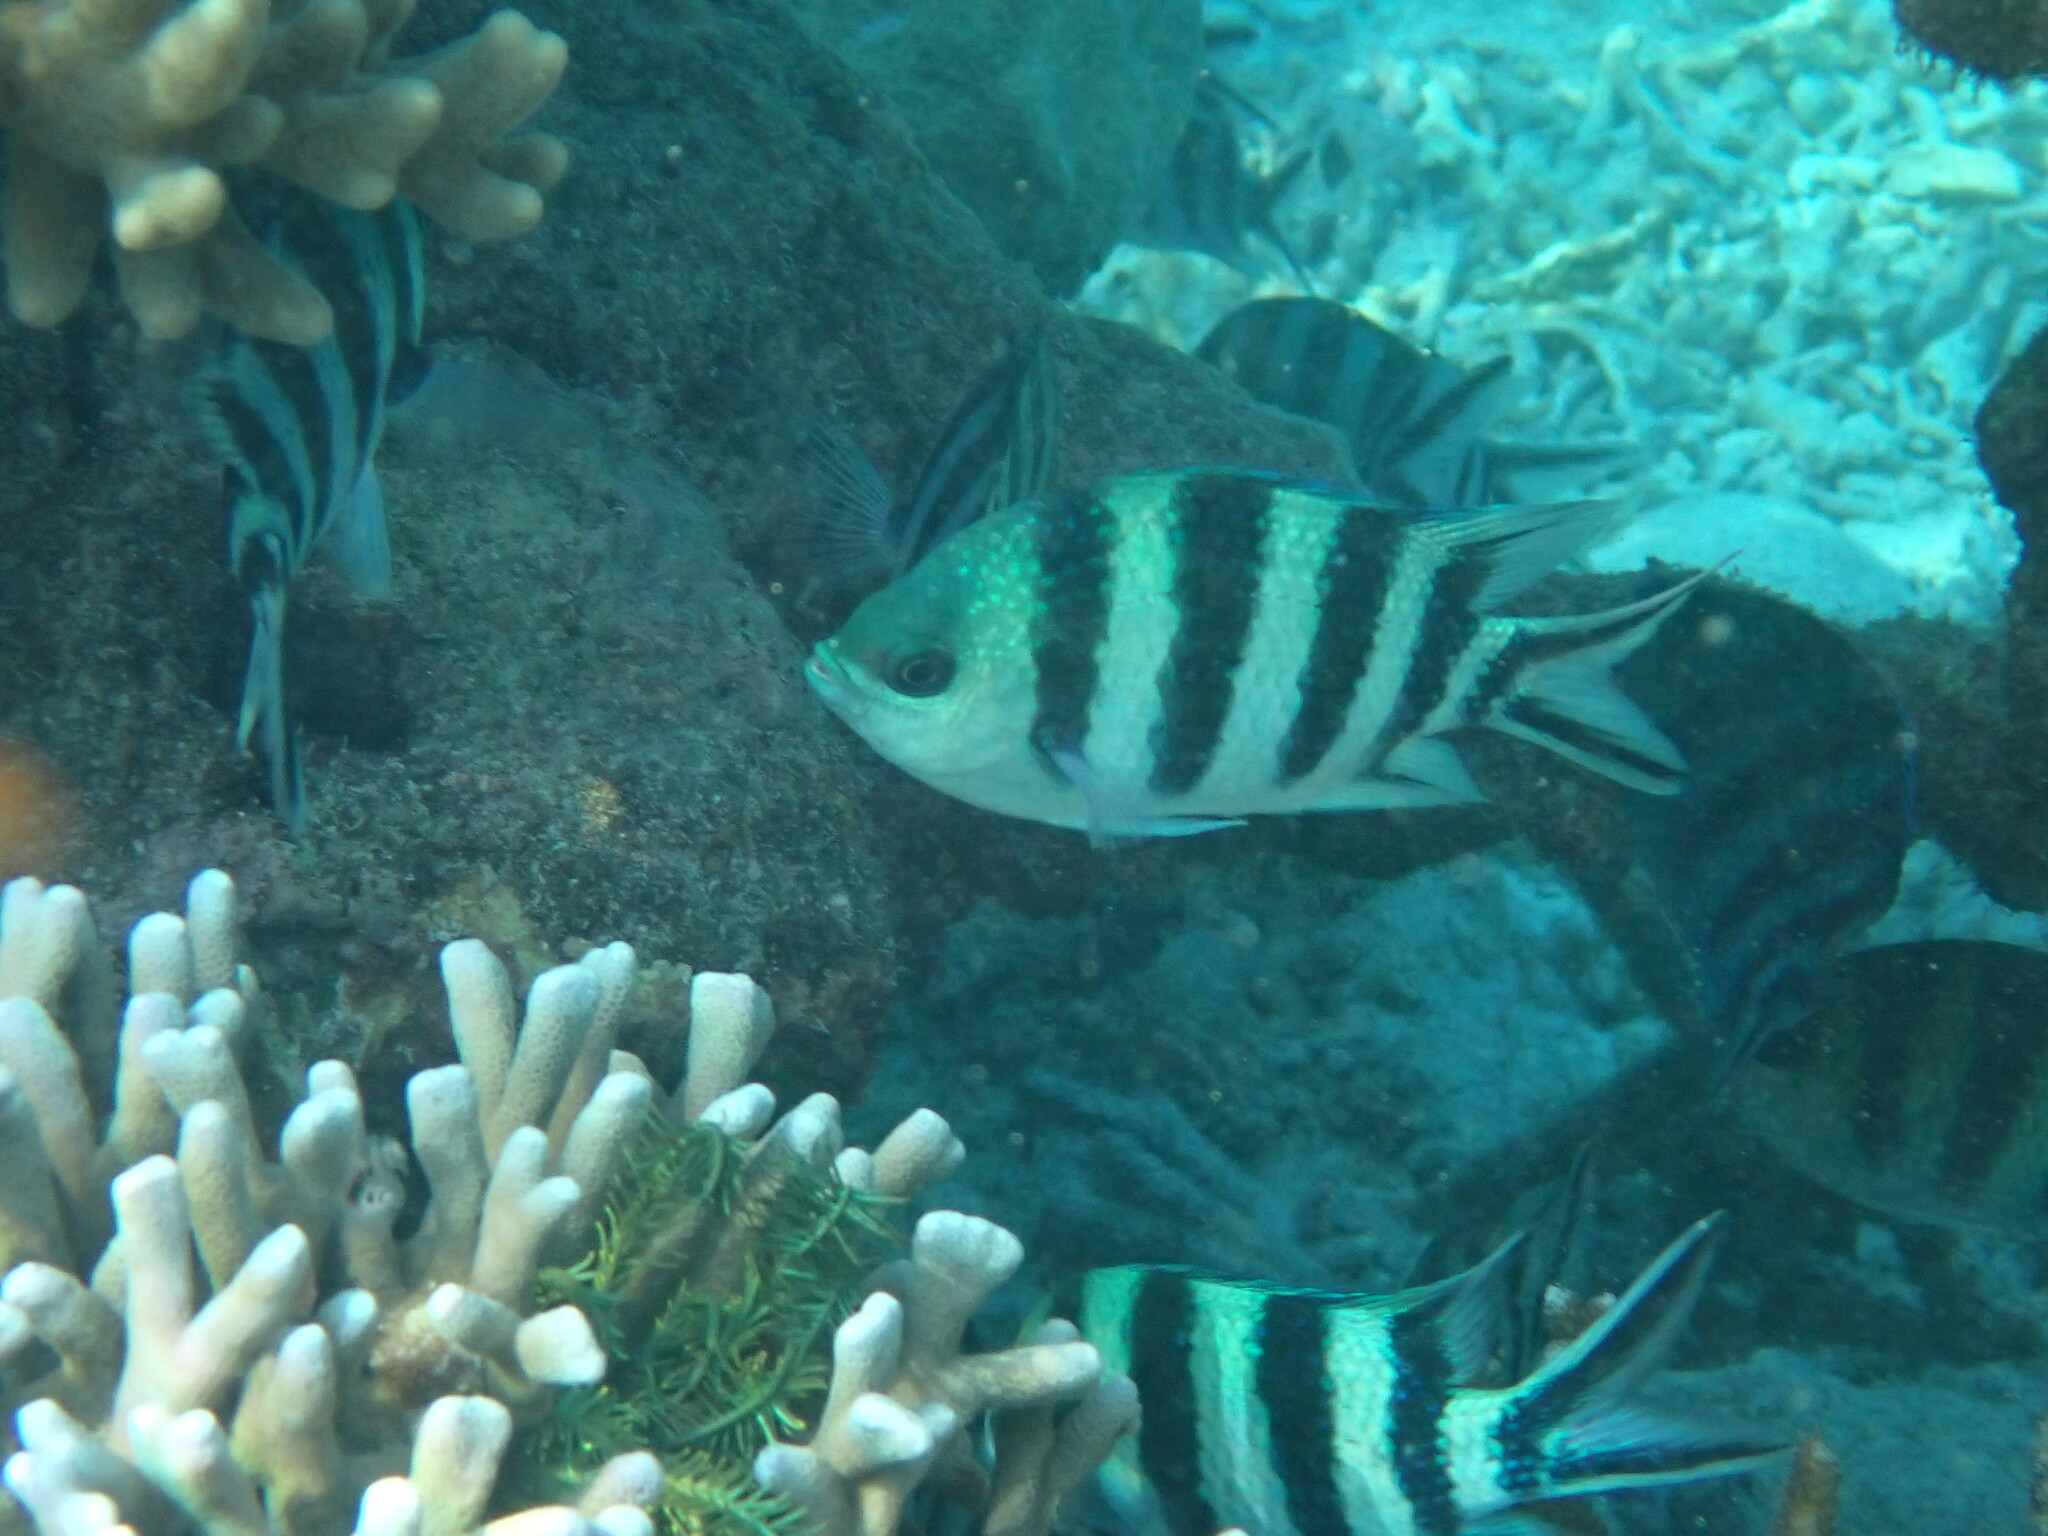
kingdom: Animalia
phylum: Chordata
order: Perciformes
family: Pomacentridae
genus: Abudefduf
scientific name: Abudefduf sexfasciatus
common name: Scissortail sergeant
